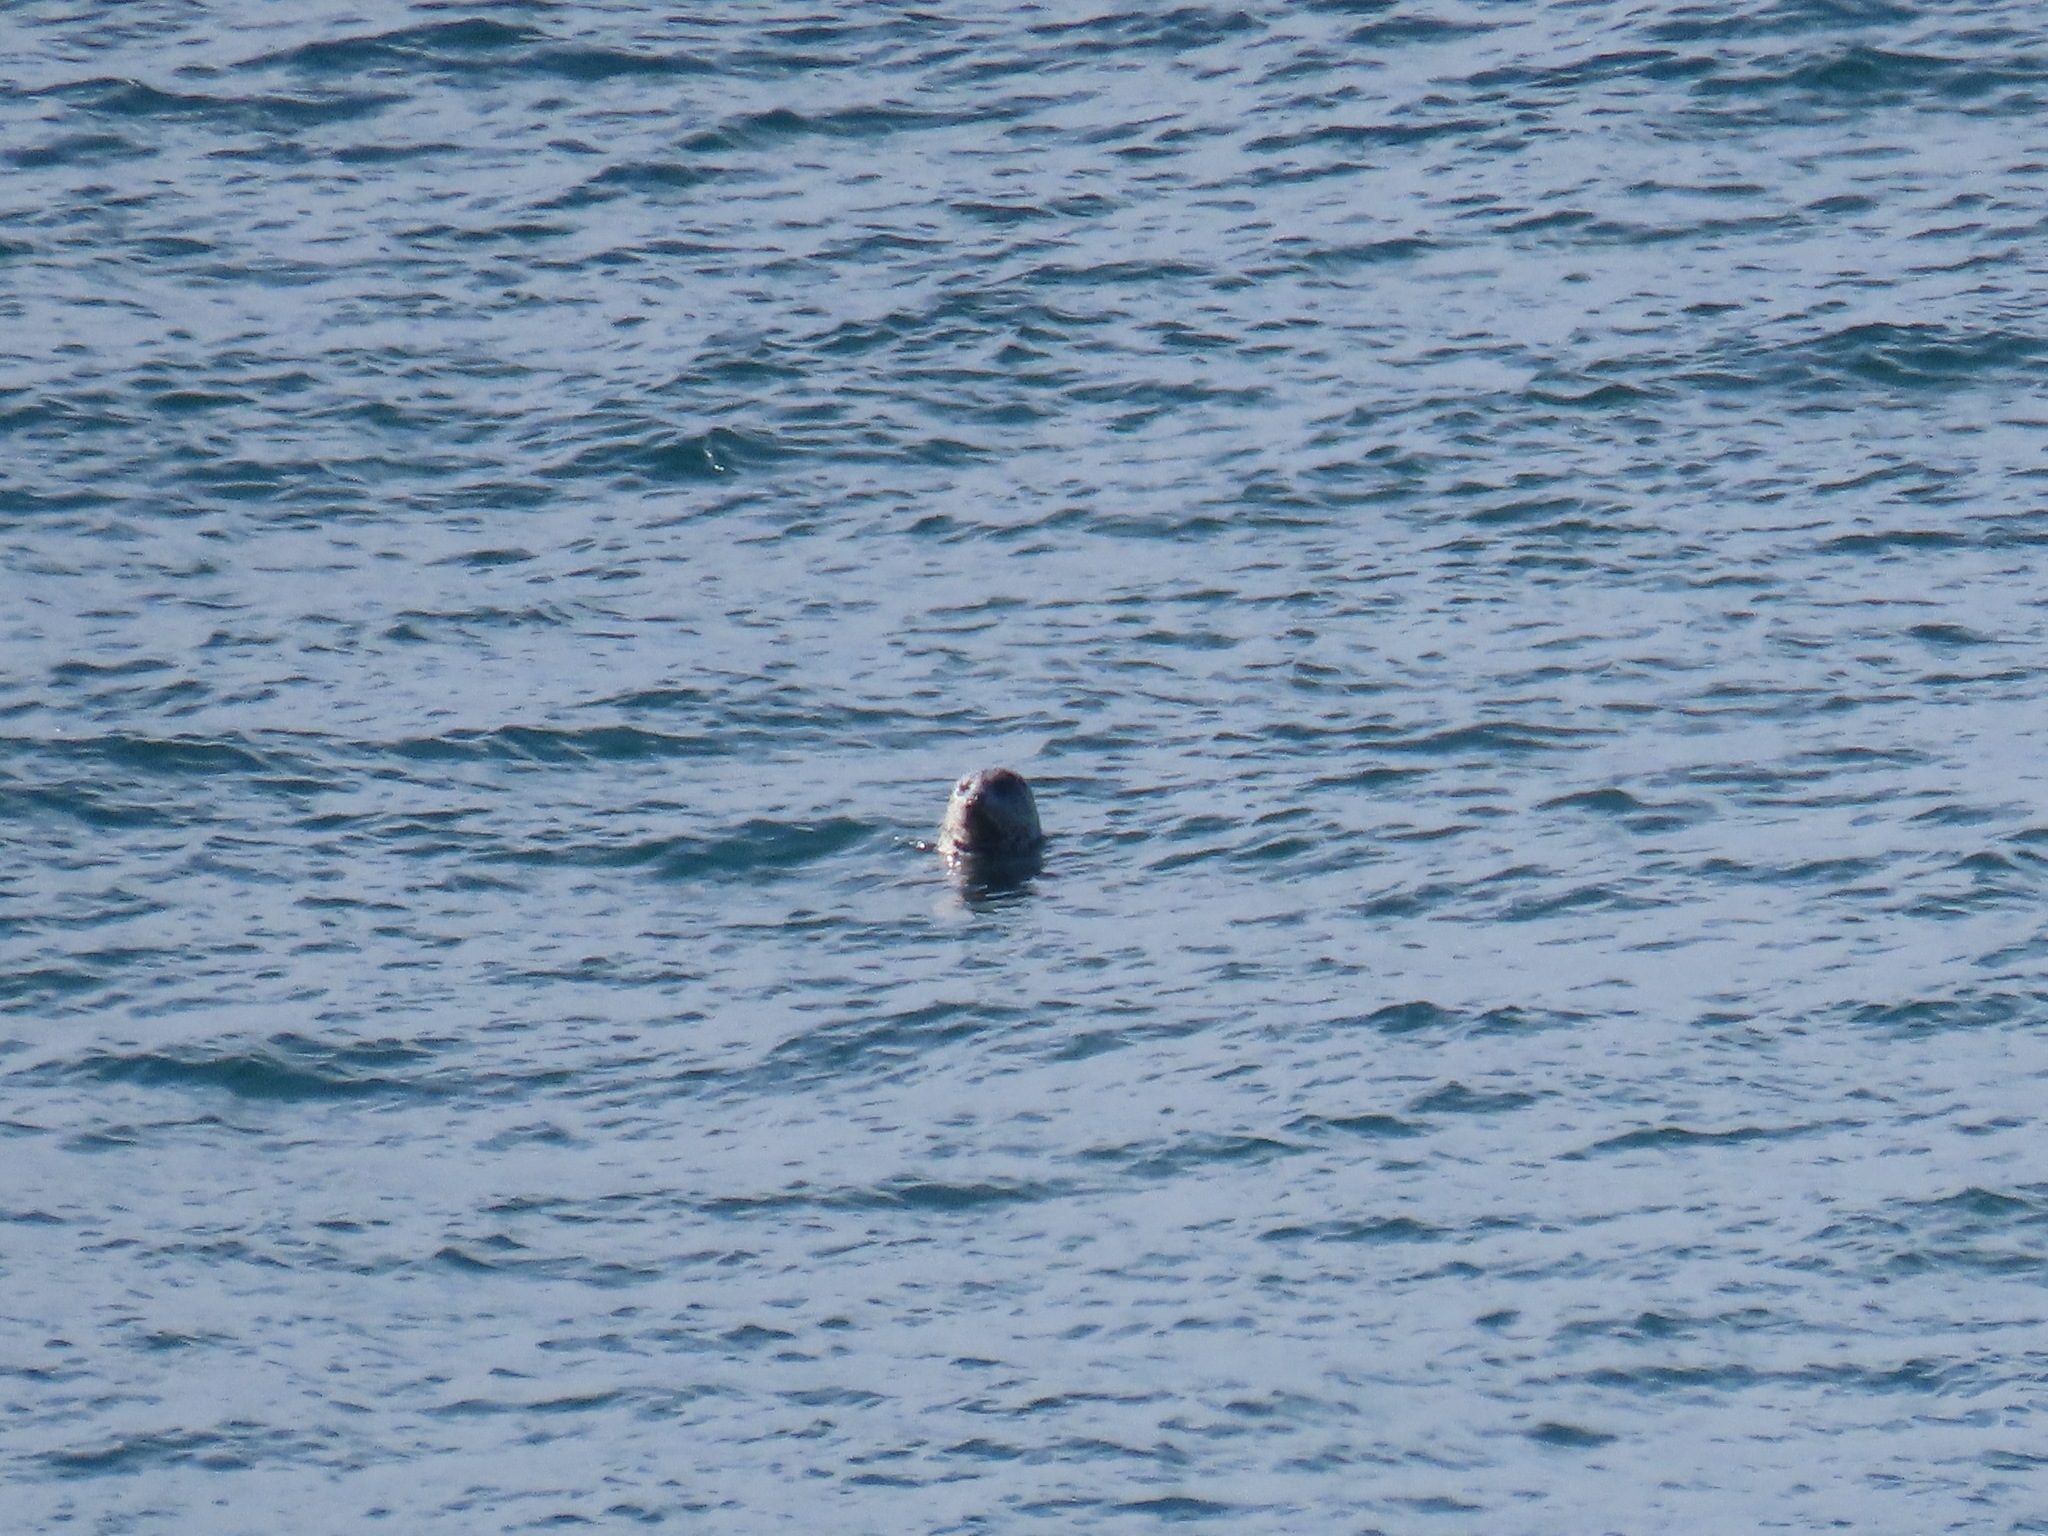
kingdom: Animalia
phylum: Chordata
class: Mammalia
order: Carnivora
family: Phocidae
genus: Phoca
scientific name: Phoca vitulina
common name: Harbor seal
